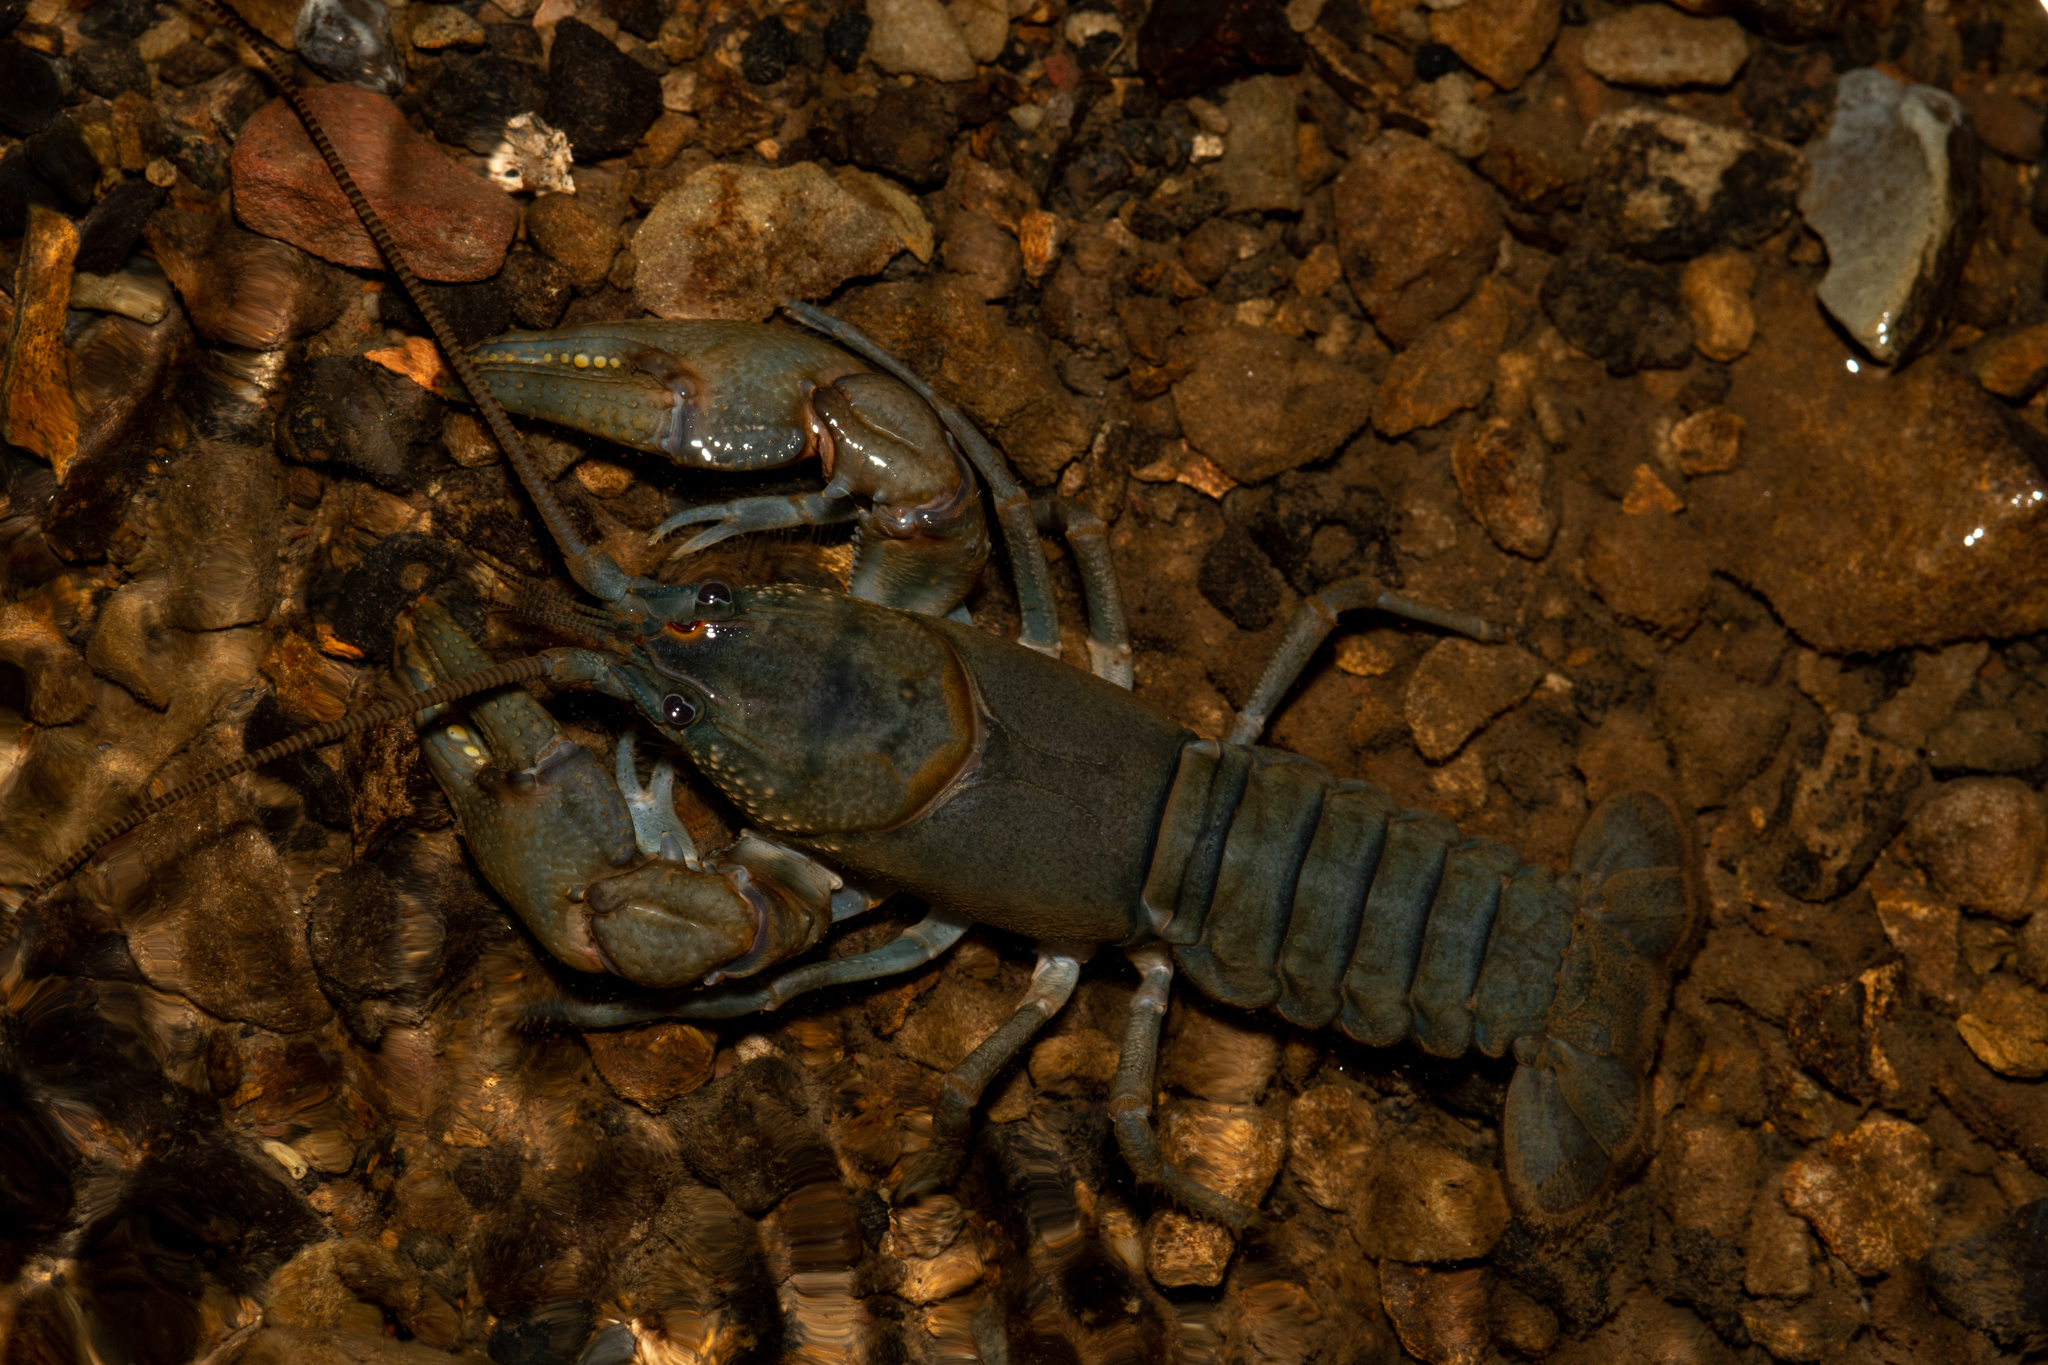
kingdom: Animalia
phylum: Arthropoda
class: Malacostraca
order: Decapoda
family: Cambaridae
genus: Cambarus
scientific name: Cambarus carinirostris
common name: Rock crayfish
